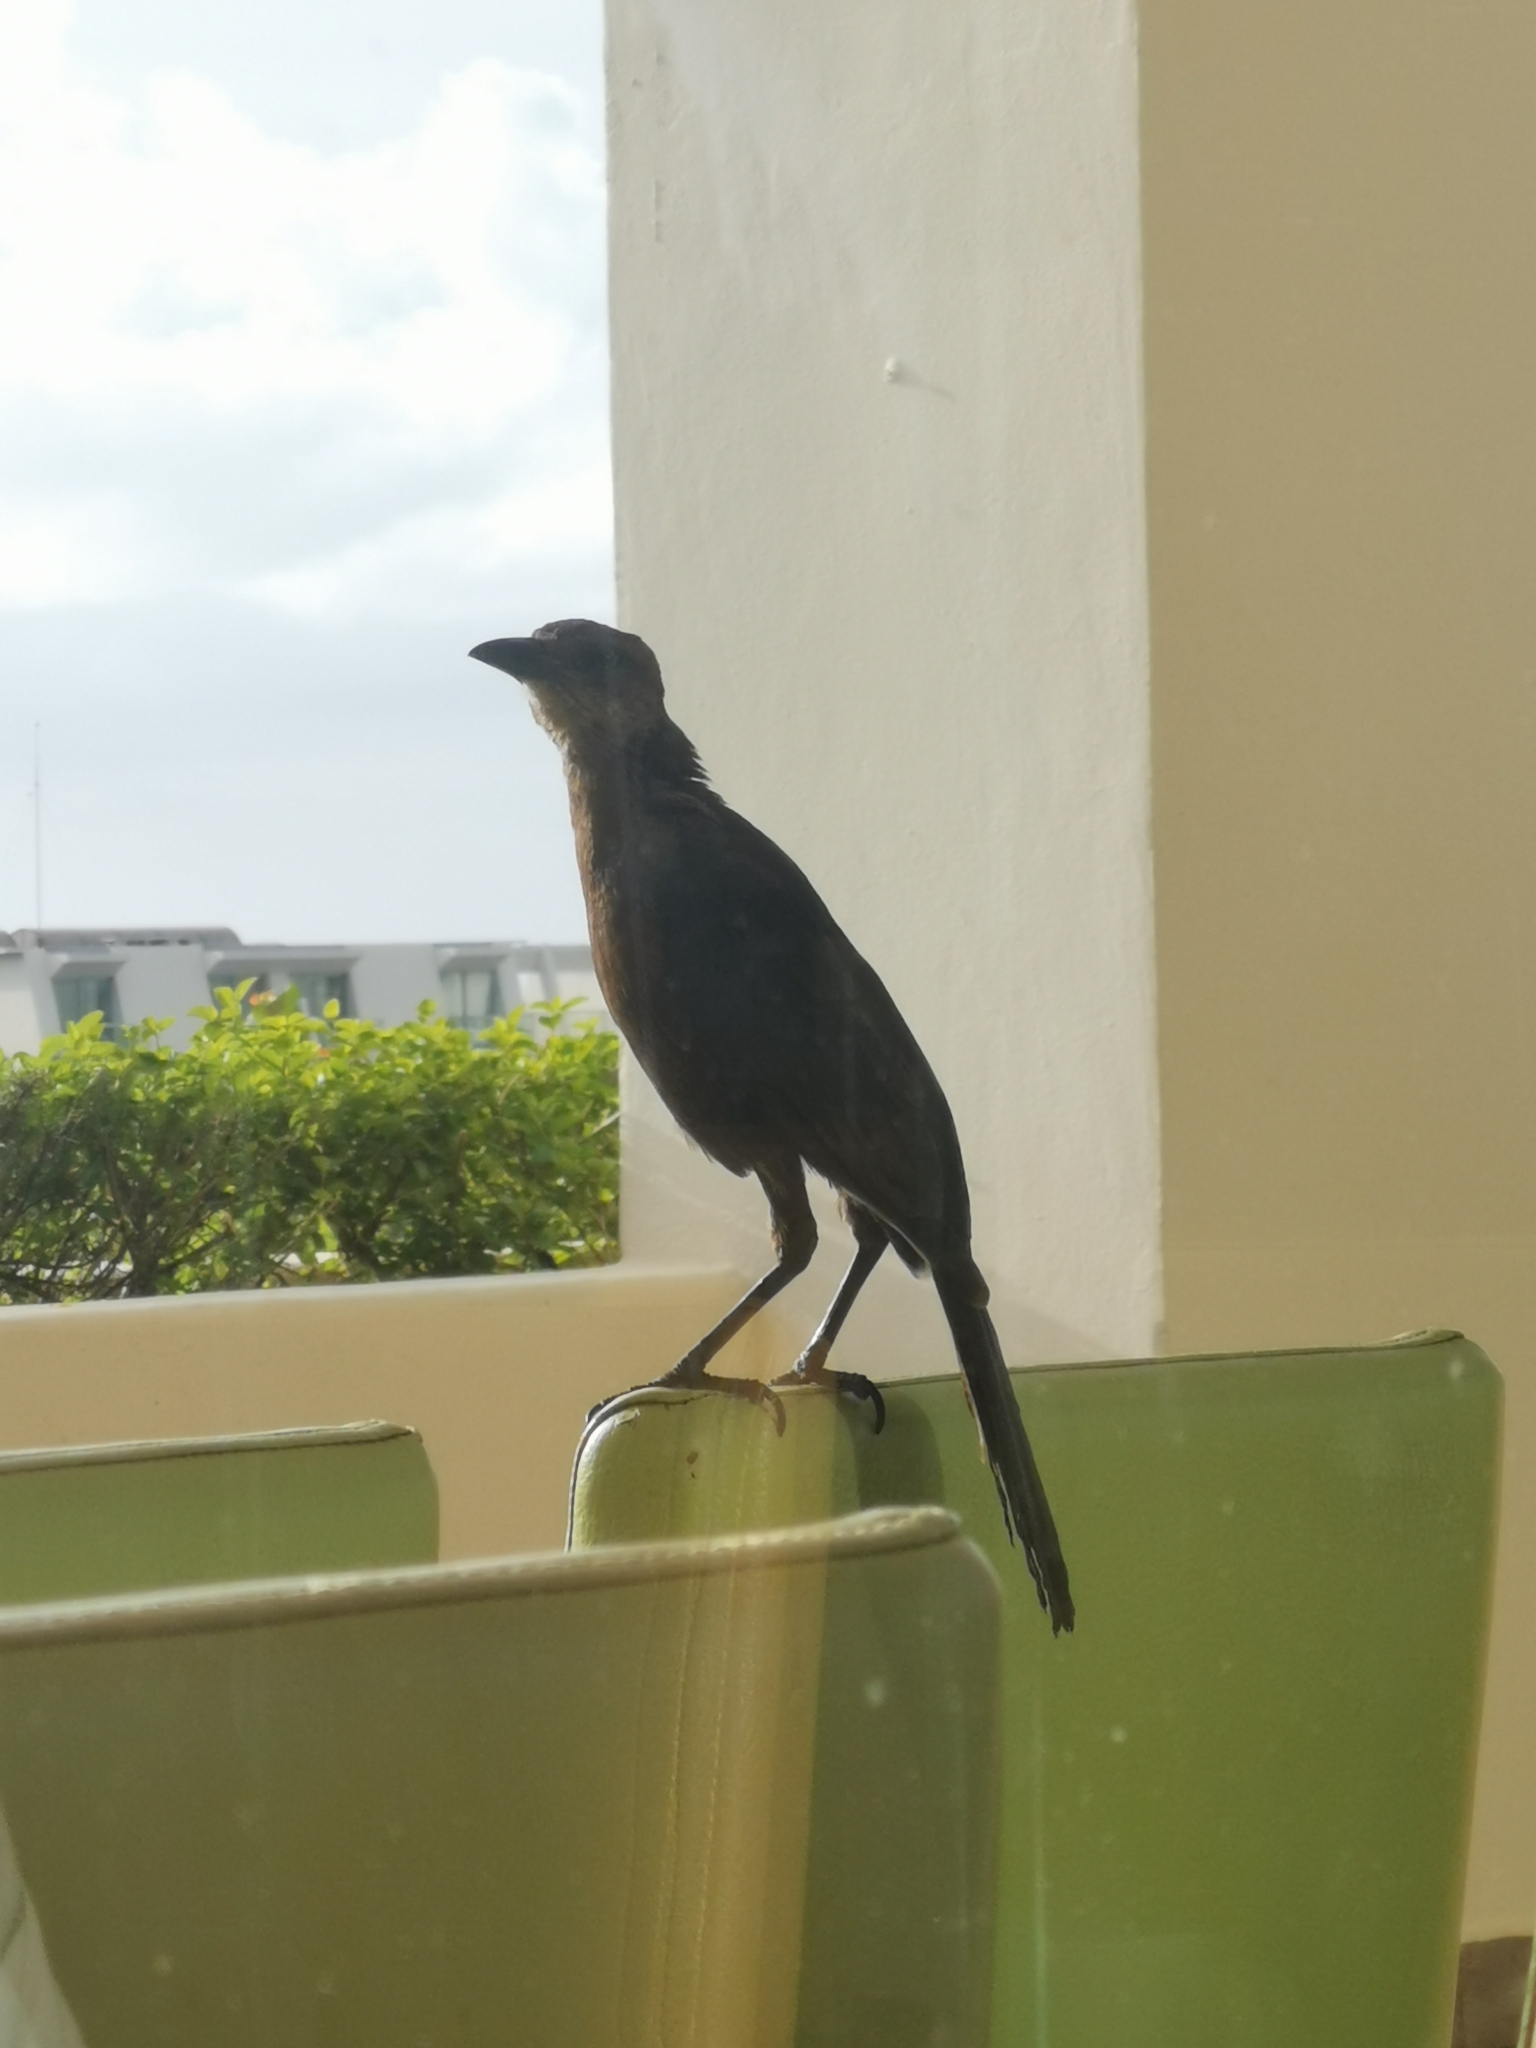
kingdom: Animalia
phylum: Chordata
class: Aves
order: Passeriformes
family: Icteridae
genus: Quiscalus
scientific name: Quiscalus mexicanus
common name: Great-tailed grackle
